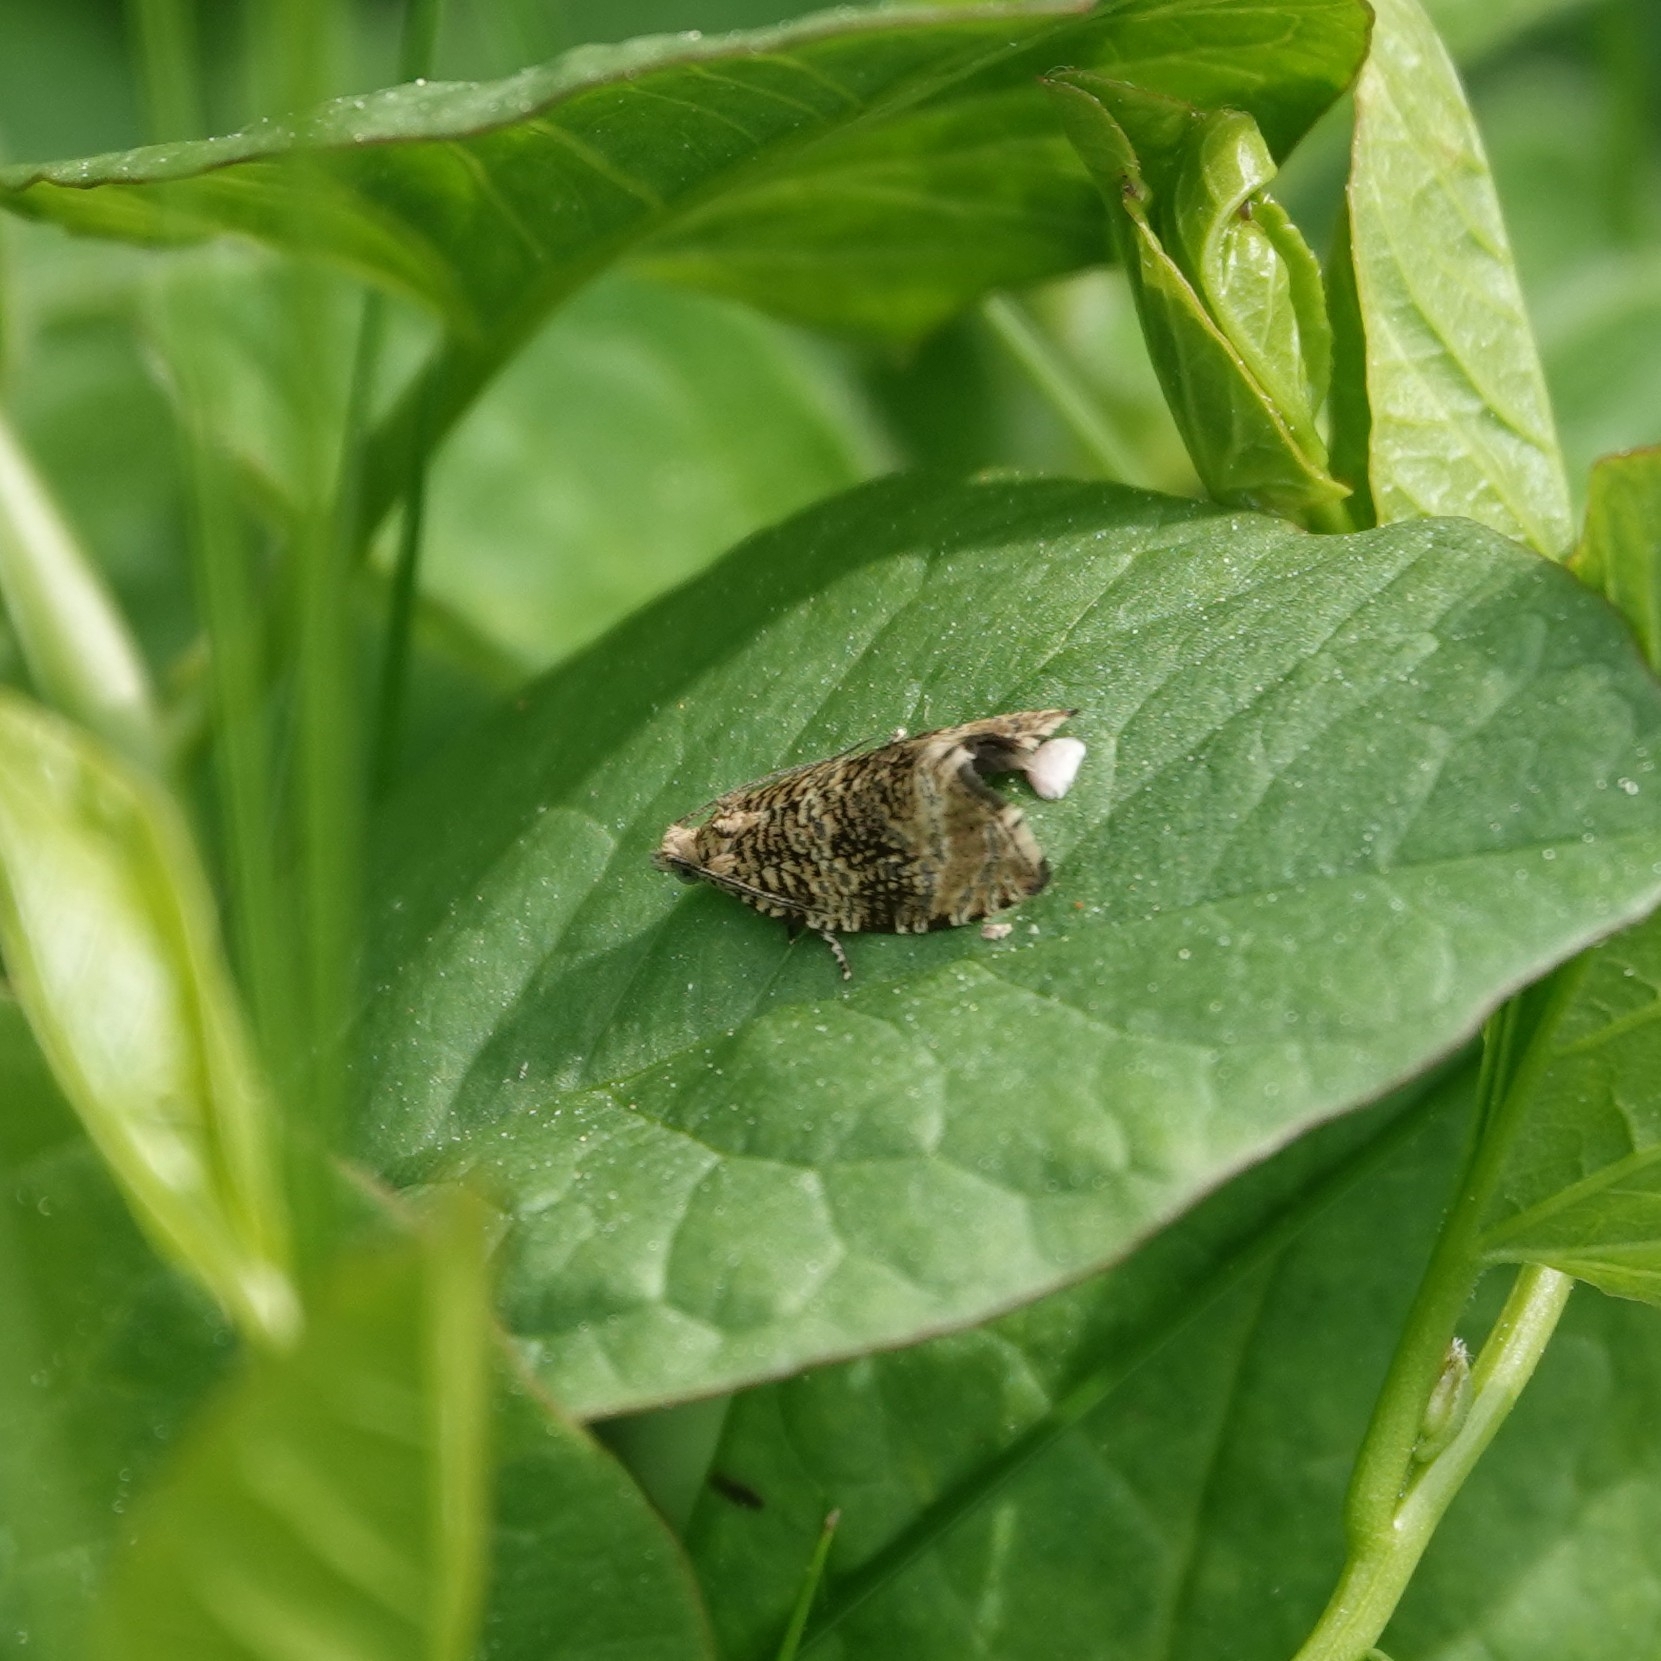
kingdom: Animalia
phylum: Arthropoda
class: Insecta
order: Lepidoptera
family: Tortricidae
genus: Syricoris
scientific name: Syricoris lacunana
